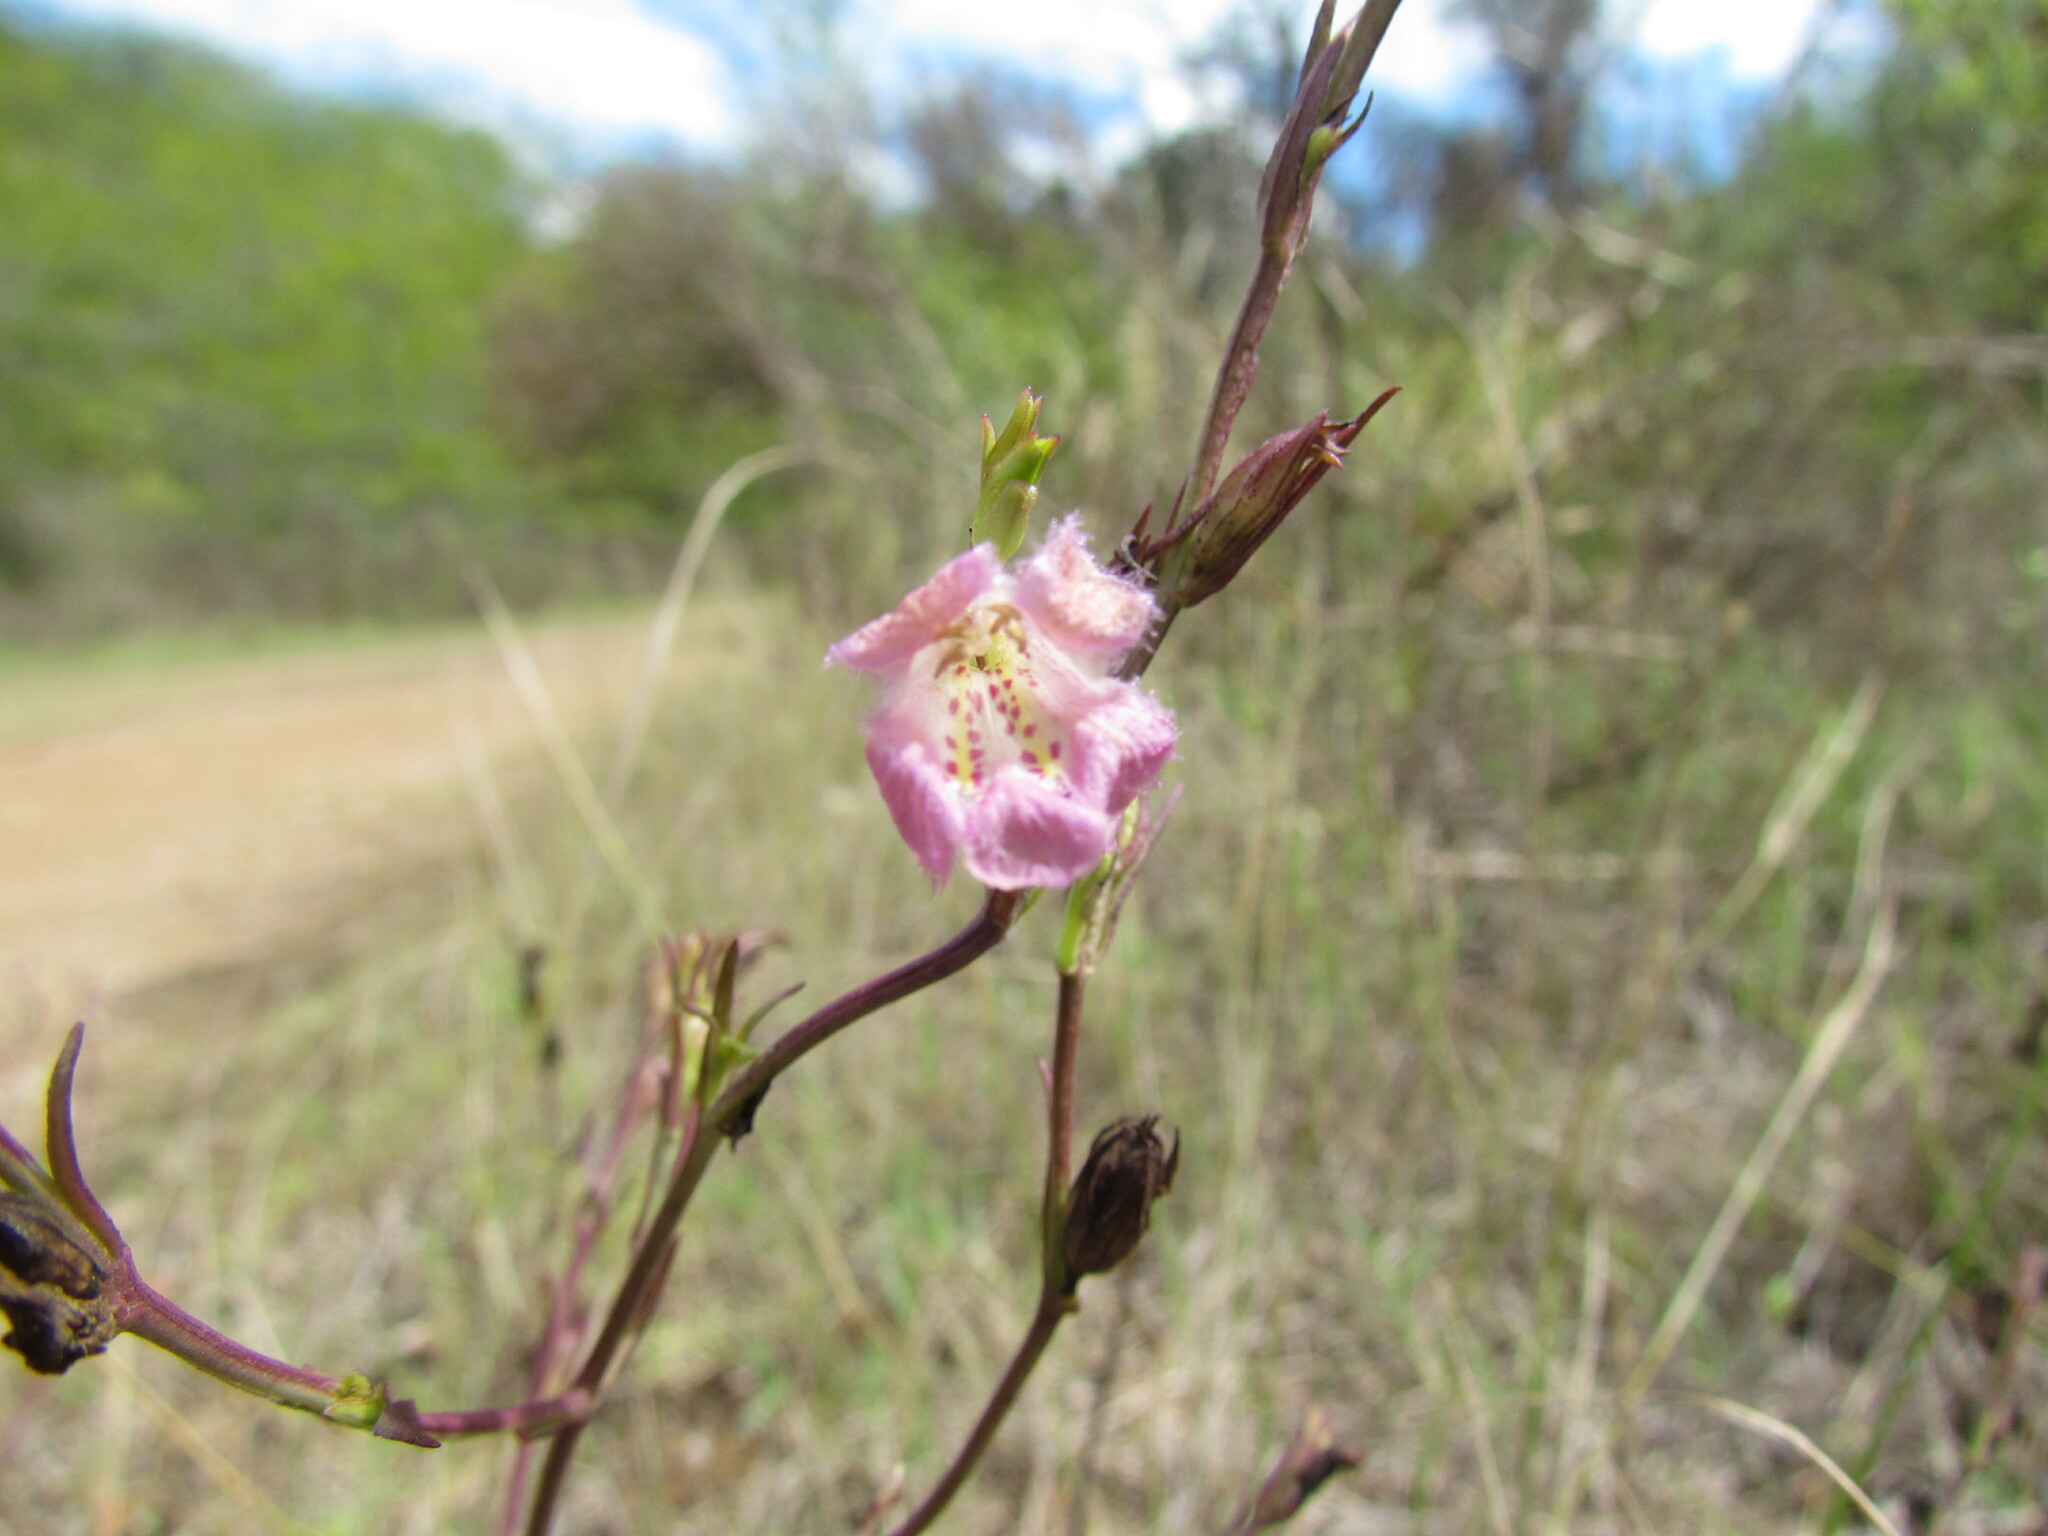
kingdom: Plantae
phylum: Tracheophyta
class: Magnoliopsida
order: Lamiales
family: Orobanchaceae
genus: Agalinis
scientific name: Agalinis communis
